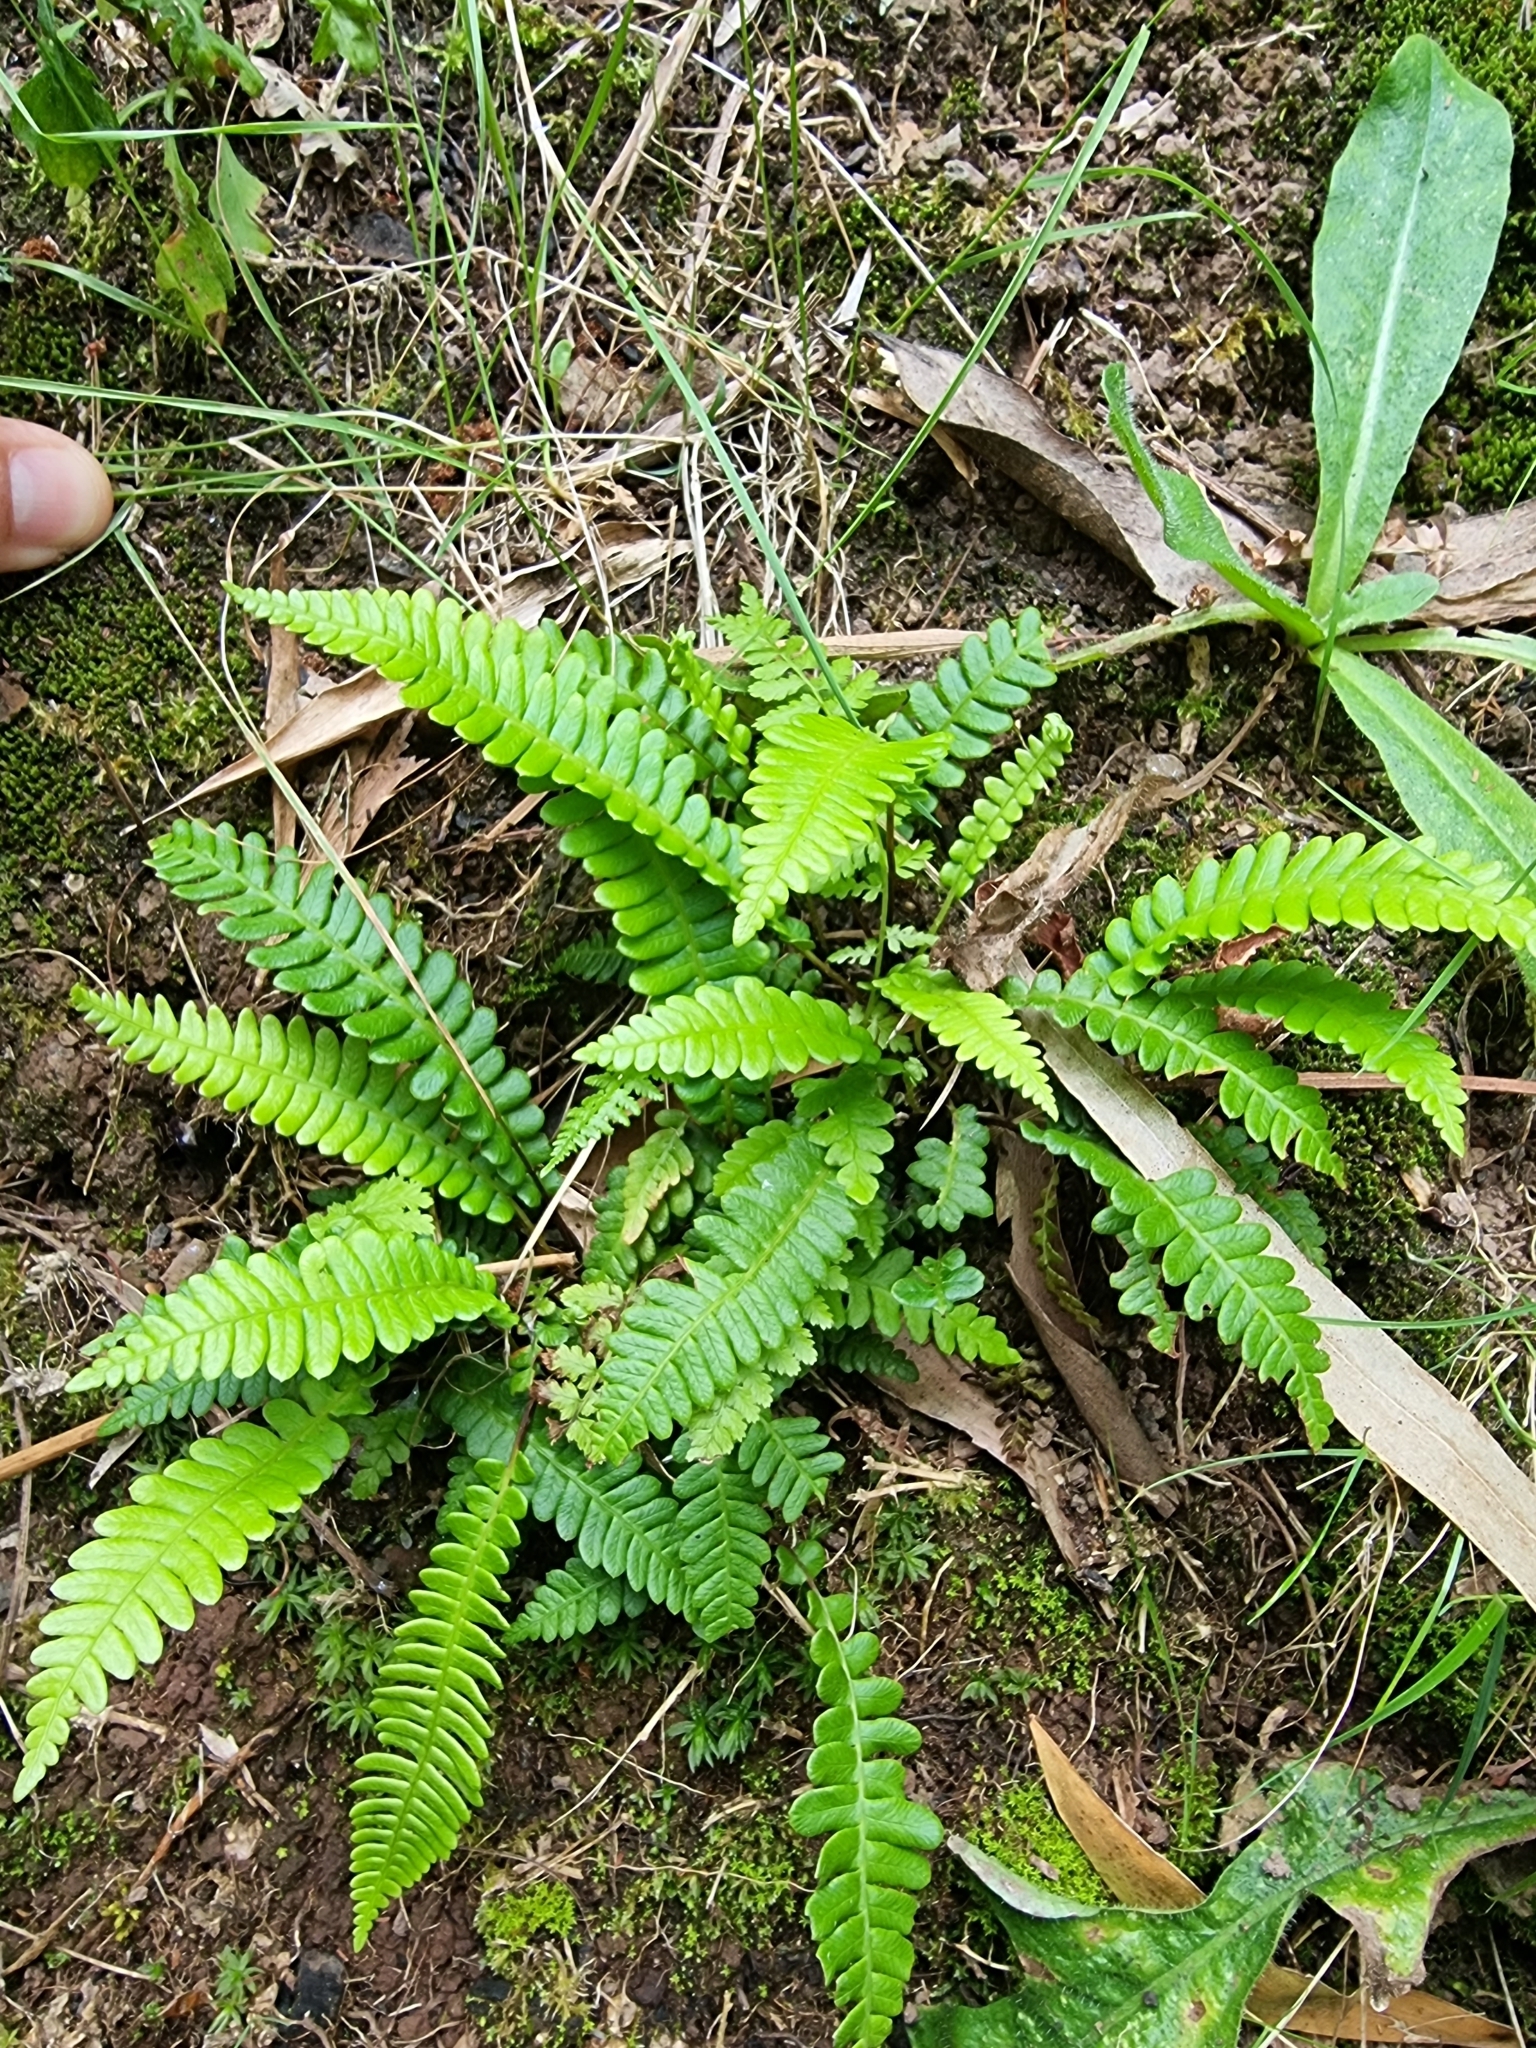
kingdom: Plantae
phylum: Tracheophyta
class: Polypodiopsida
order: Polypodiales
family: Blechnaceae
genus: Struthiopteris
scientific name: Struthiopteris spicant
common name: Deer fern
